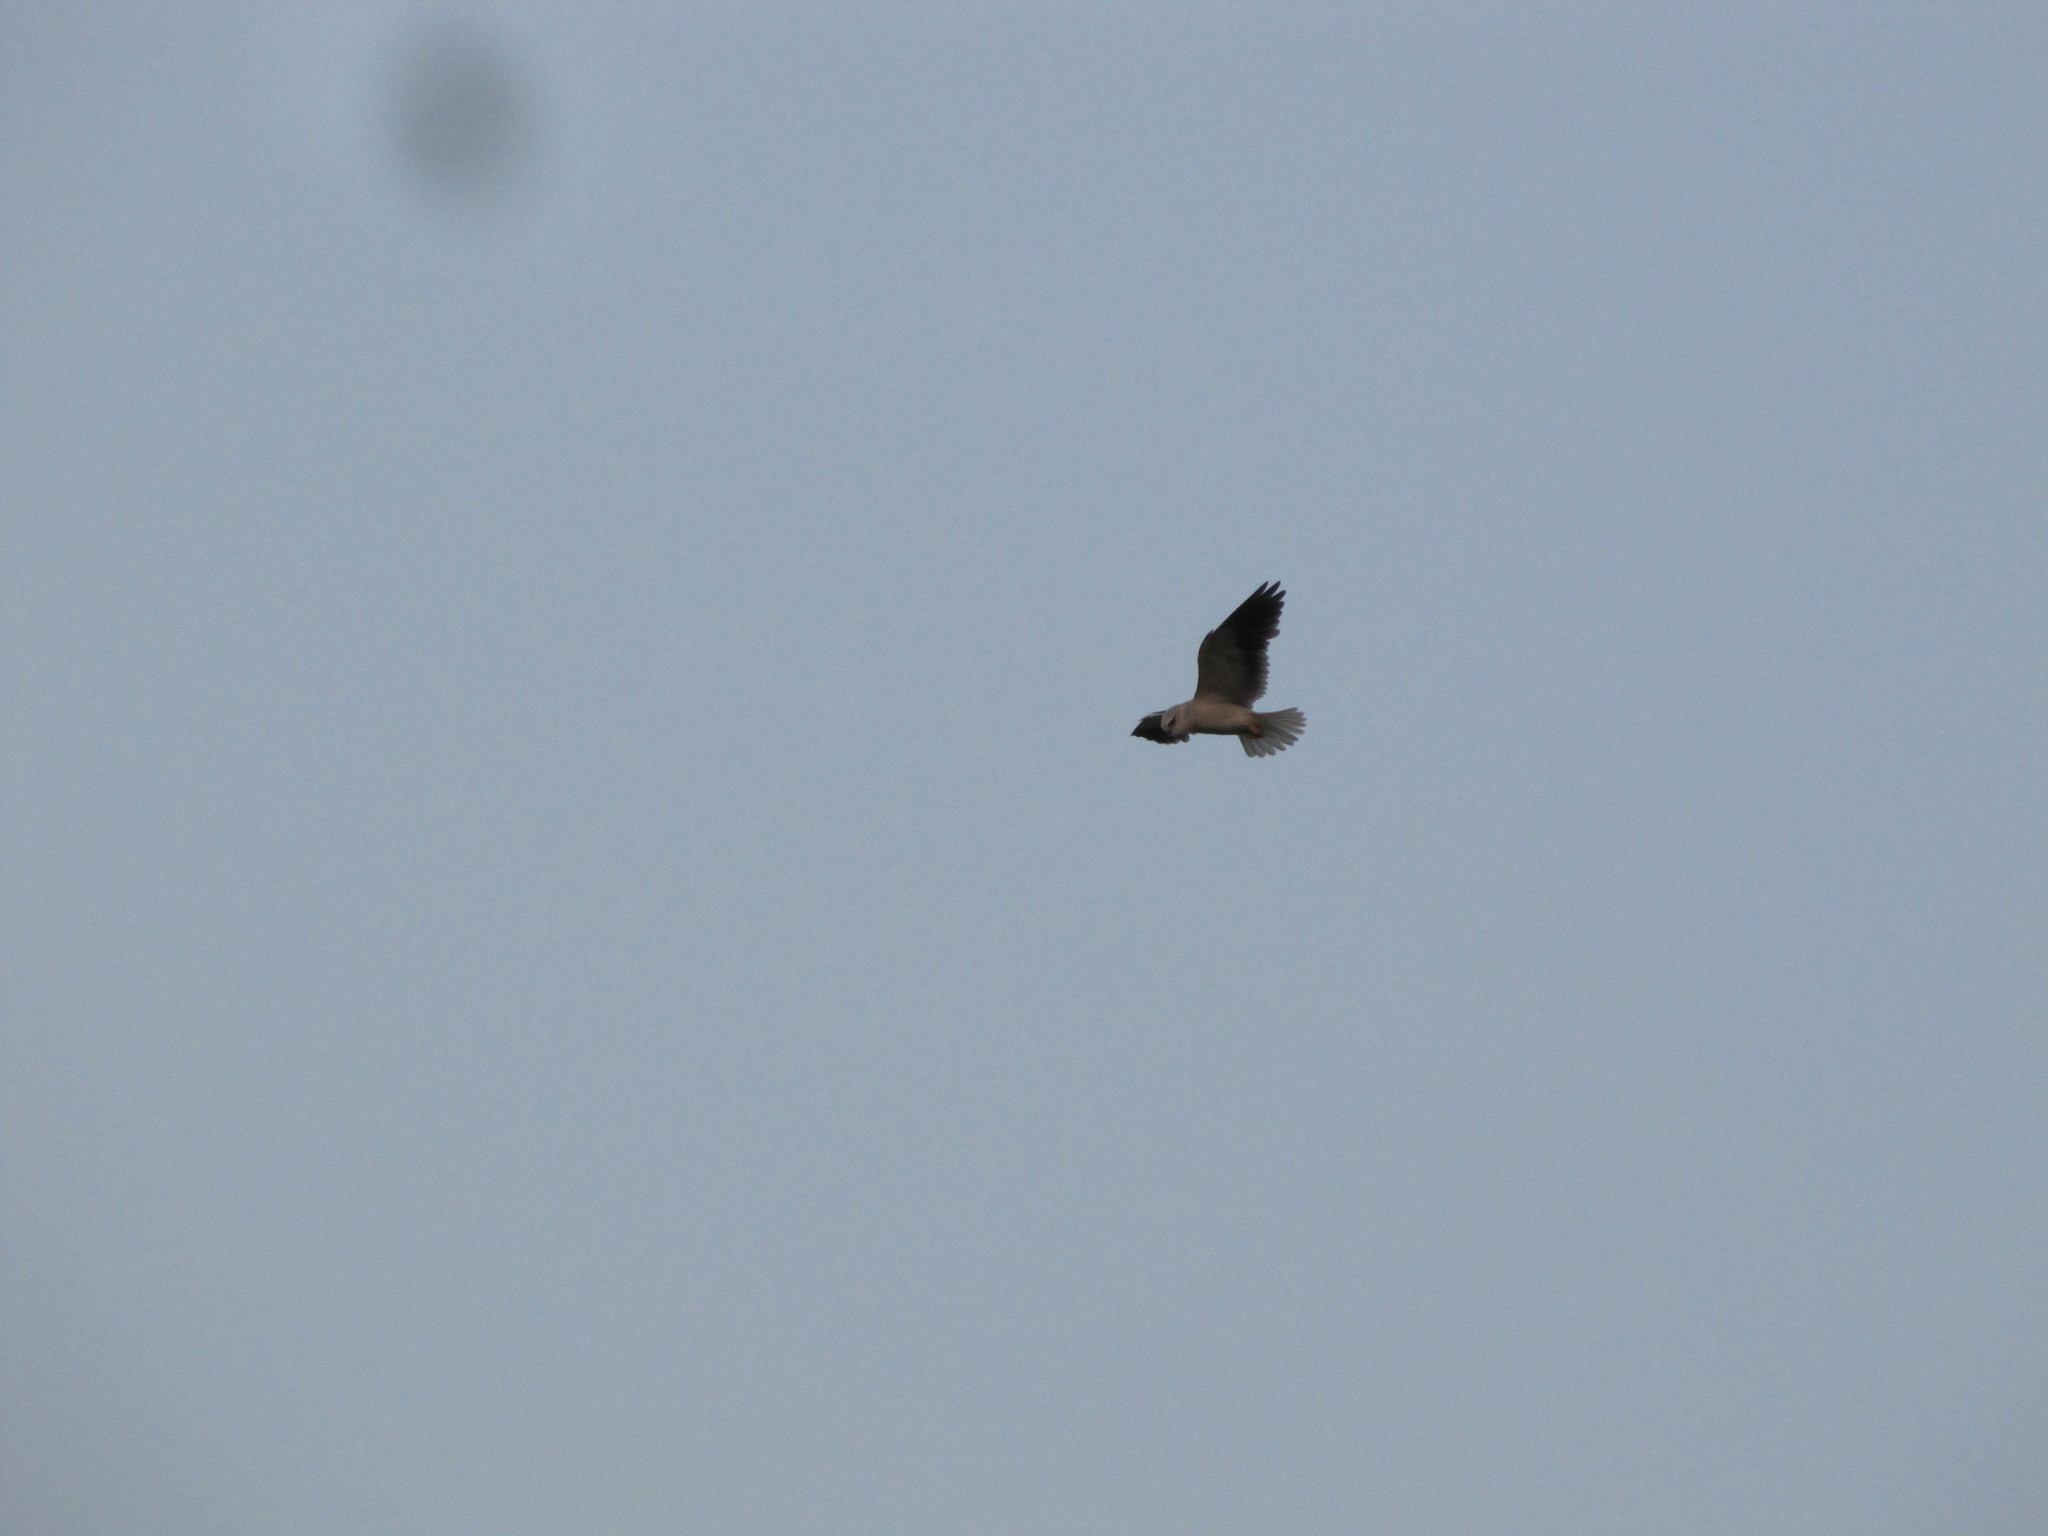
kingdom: Animalia
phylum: Chordata
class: Aves
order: Accipitriformes
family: Accipitridae
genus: Elanus
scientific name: Elanus caeruleus
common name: Black-winged kite
